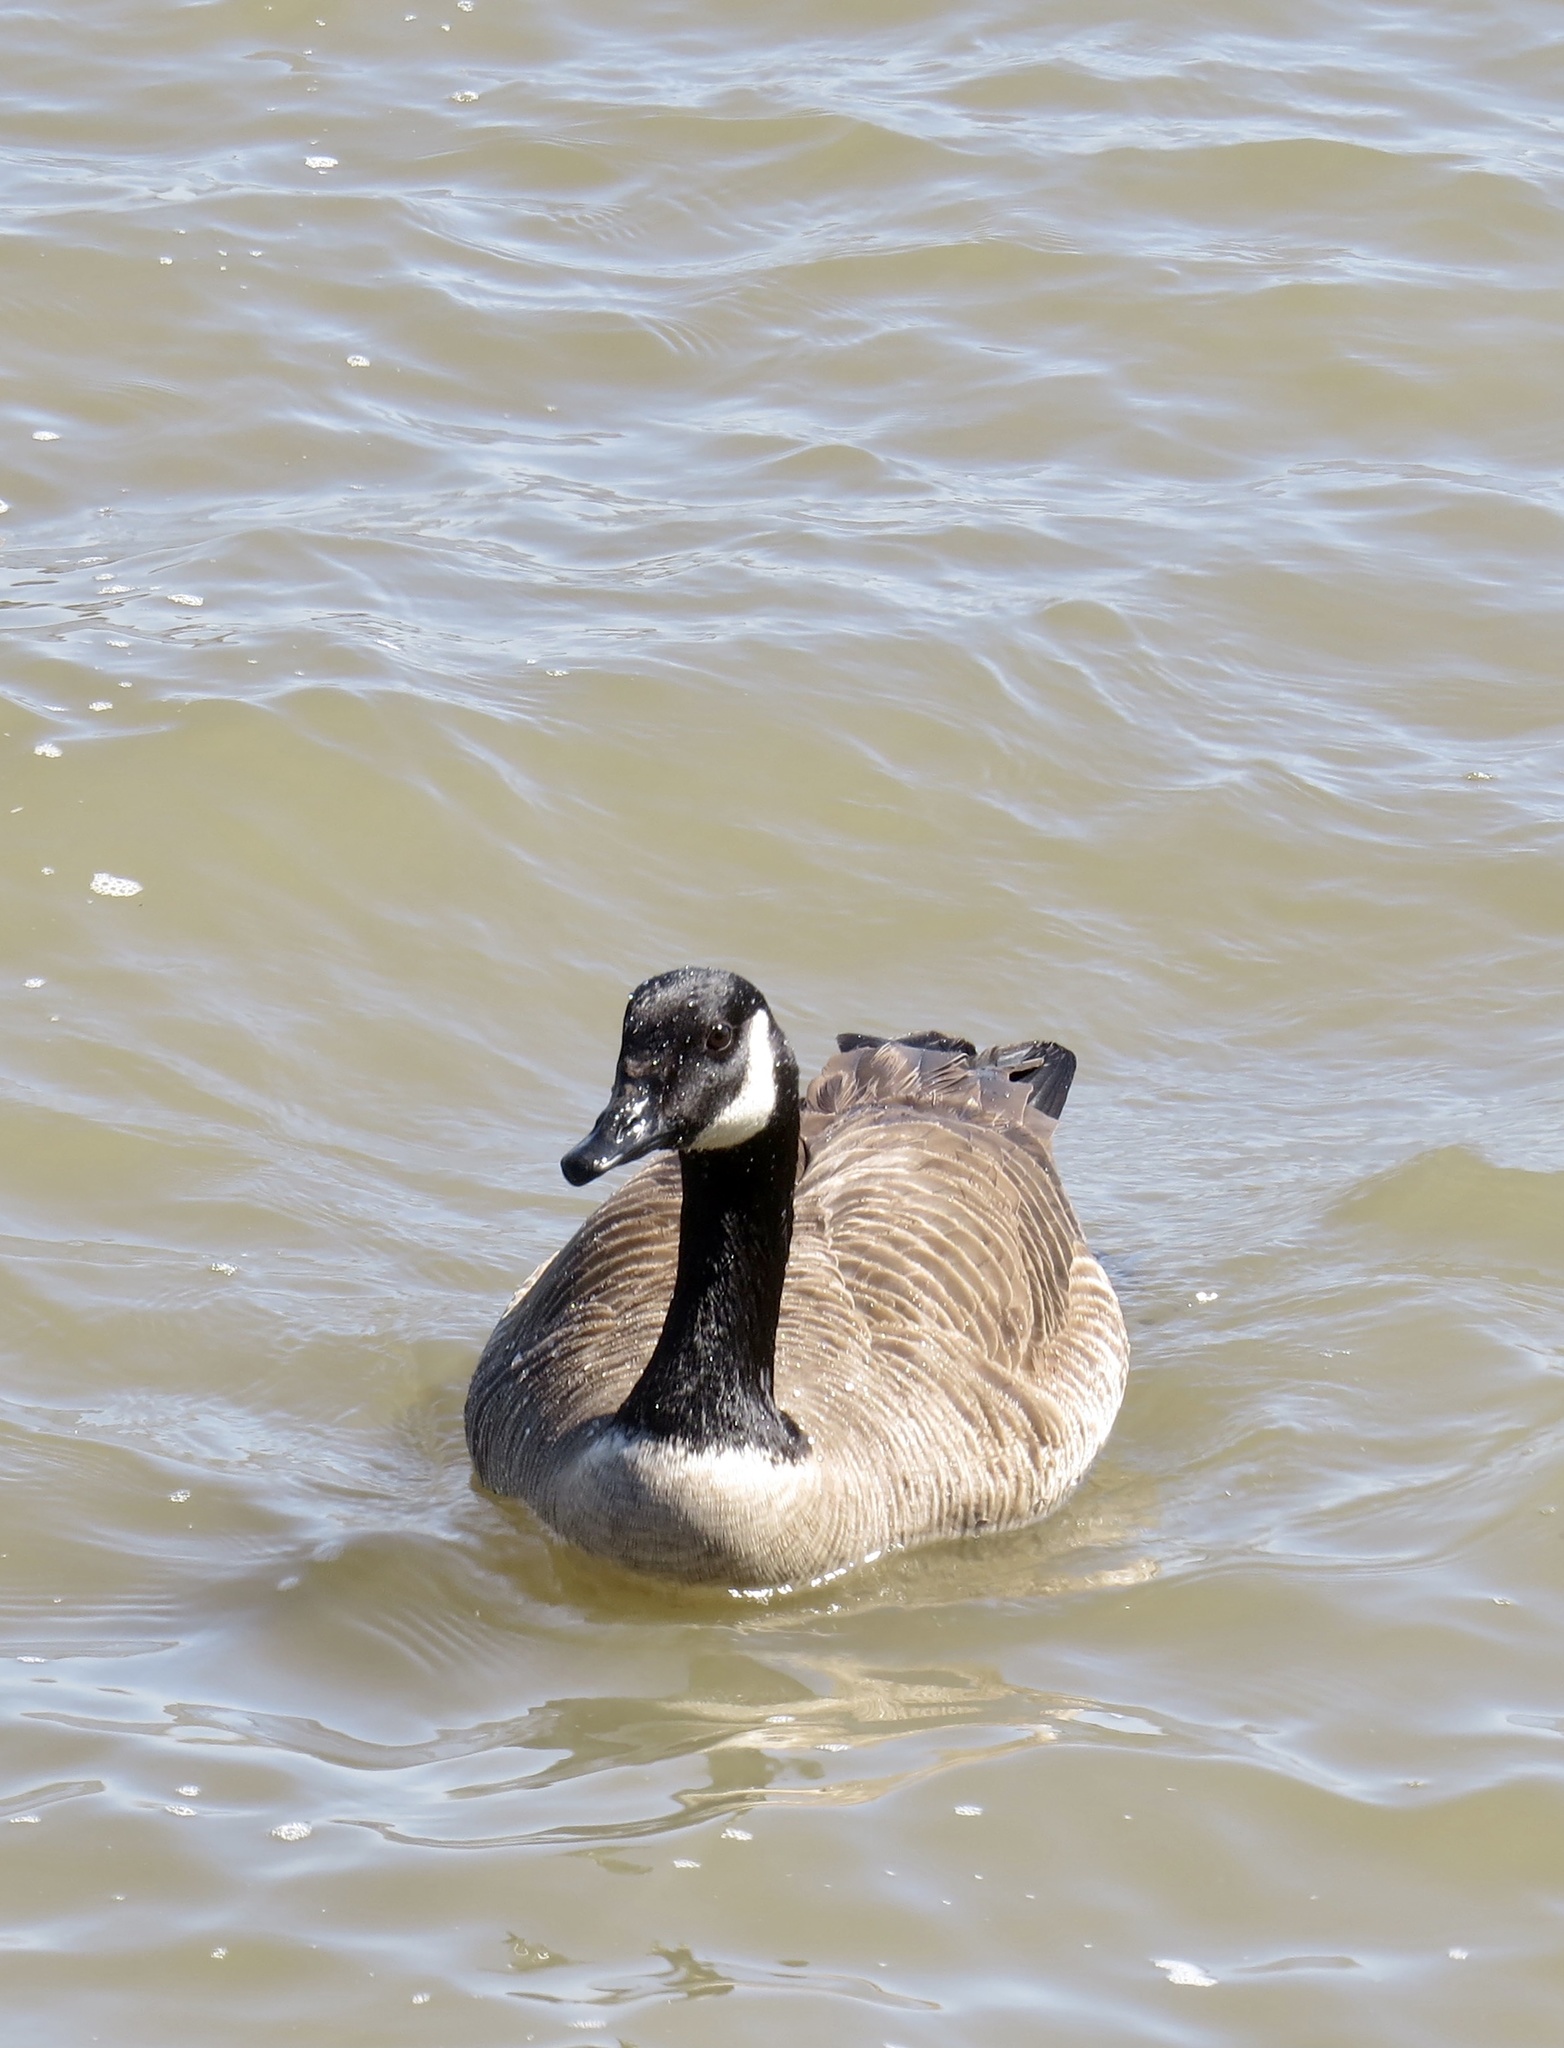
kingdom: Animalia
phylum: Chordata
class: Aves
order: Anseriformes
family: Anatidae
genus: Branta
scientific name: Branta canadensis
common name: Canada goose
